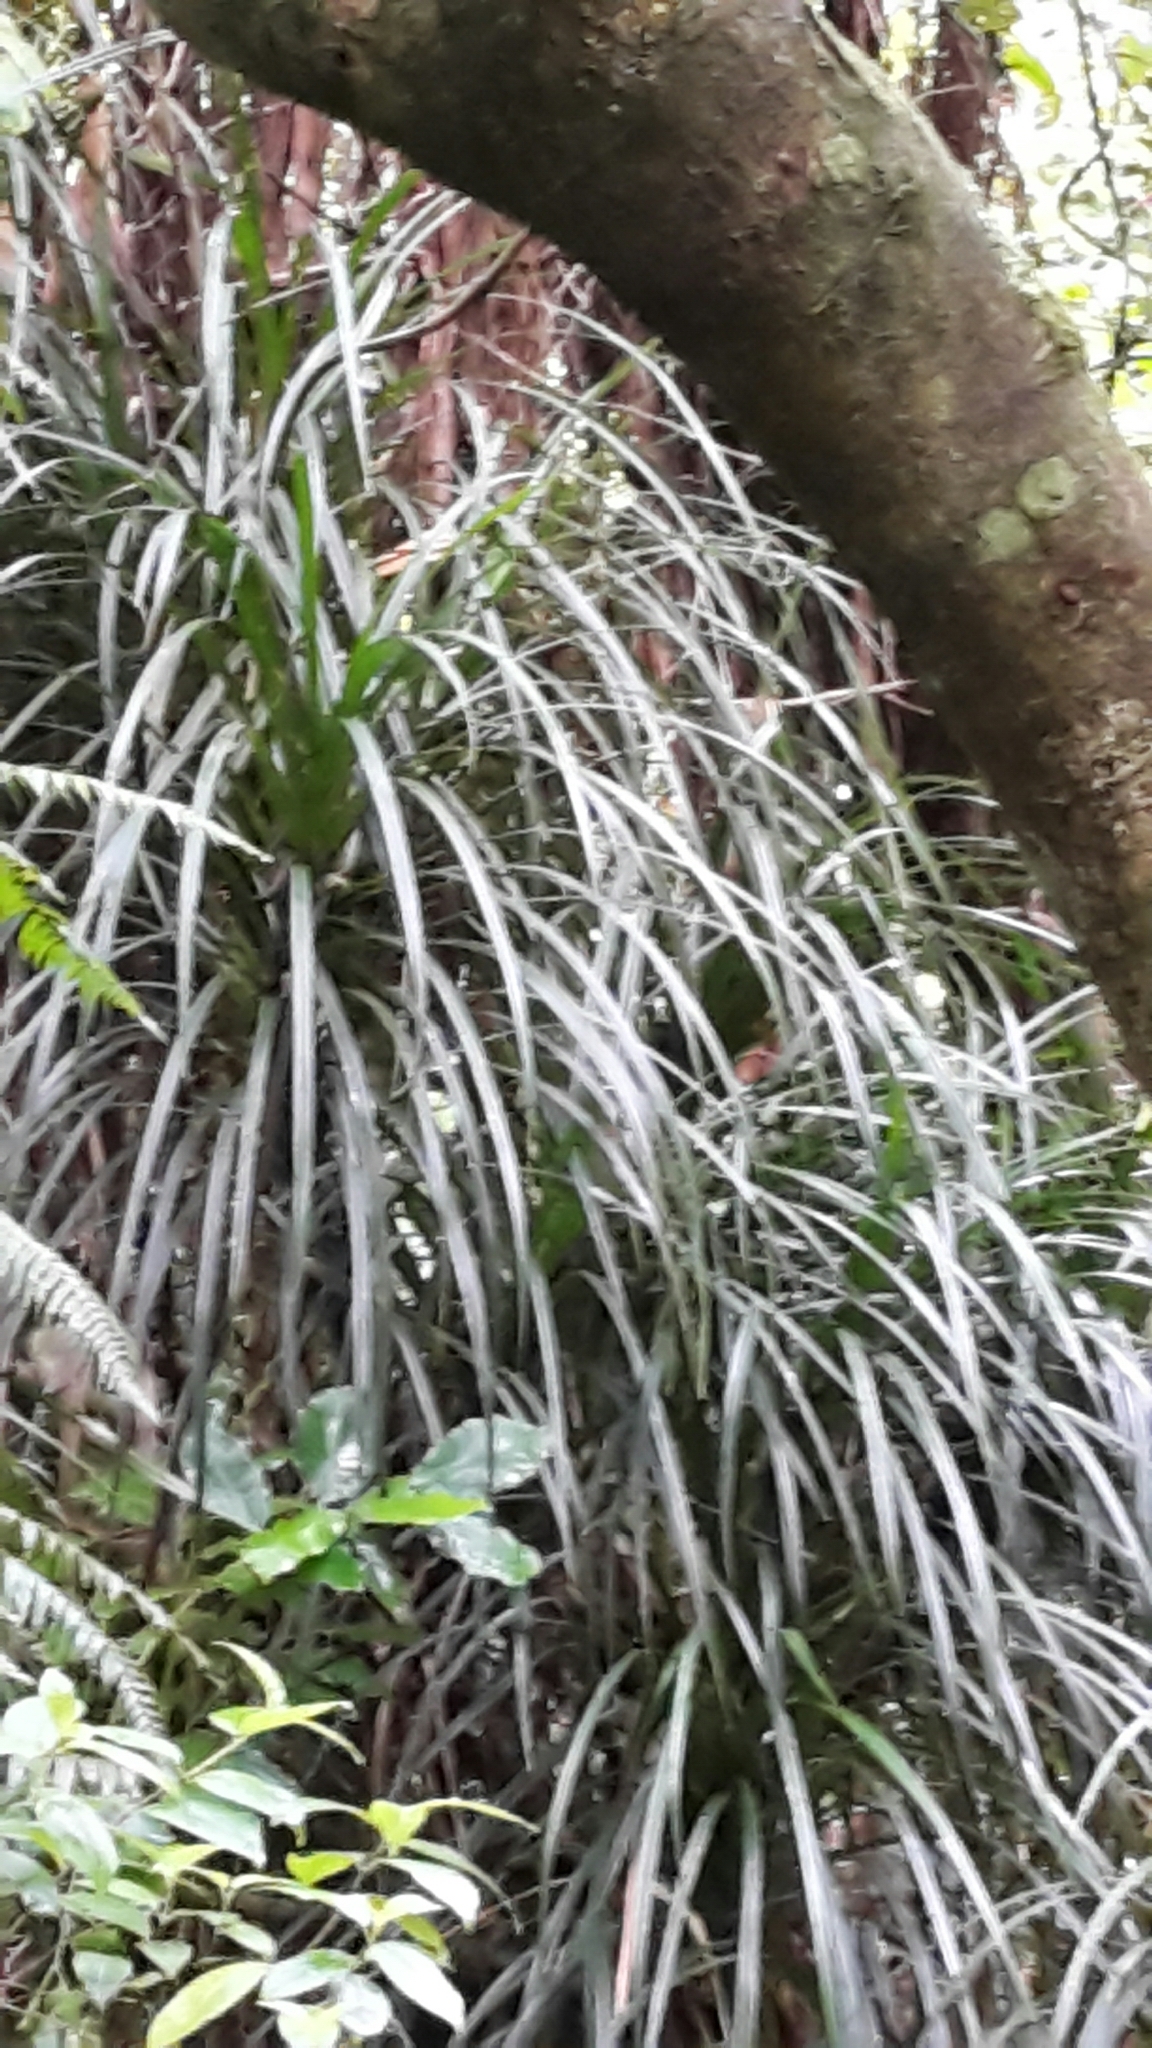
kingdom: Plantae
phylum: Tracheophyta
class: Liliopsida
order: Pandanales
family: Pandanaceae
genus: Freycinetia
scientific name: Freycinetia banksii
